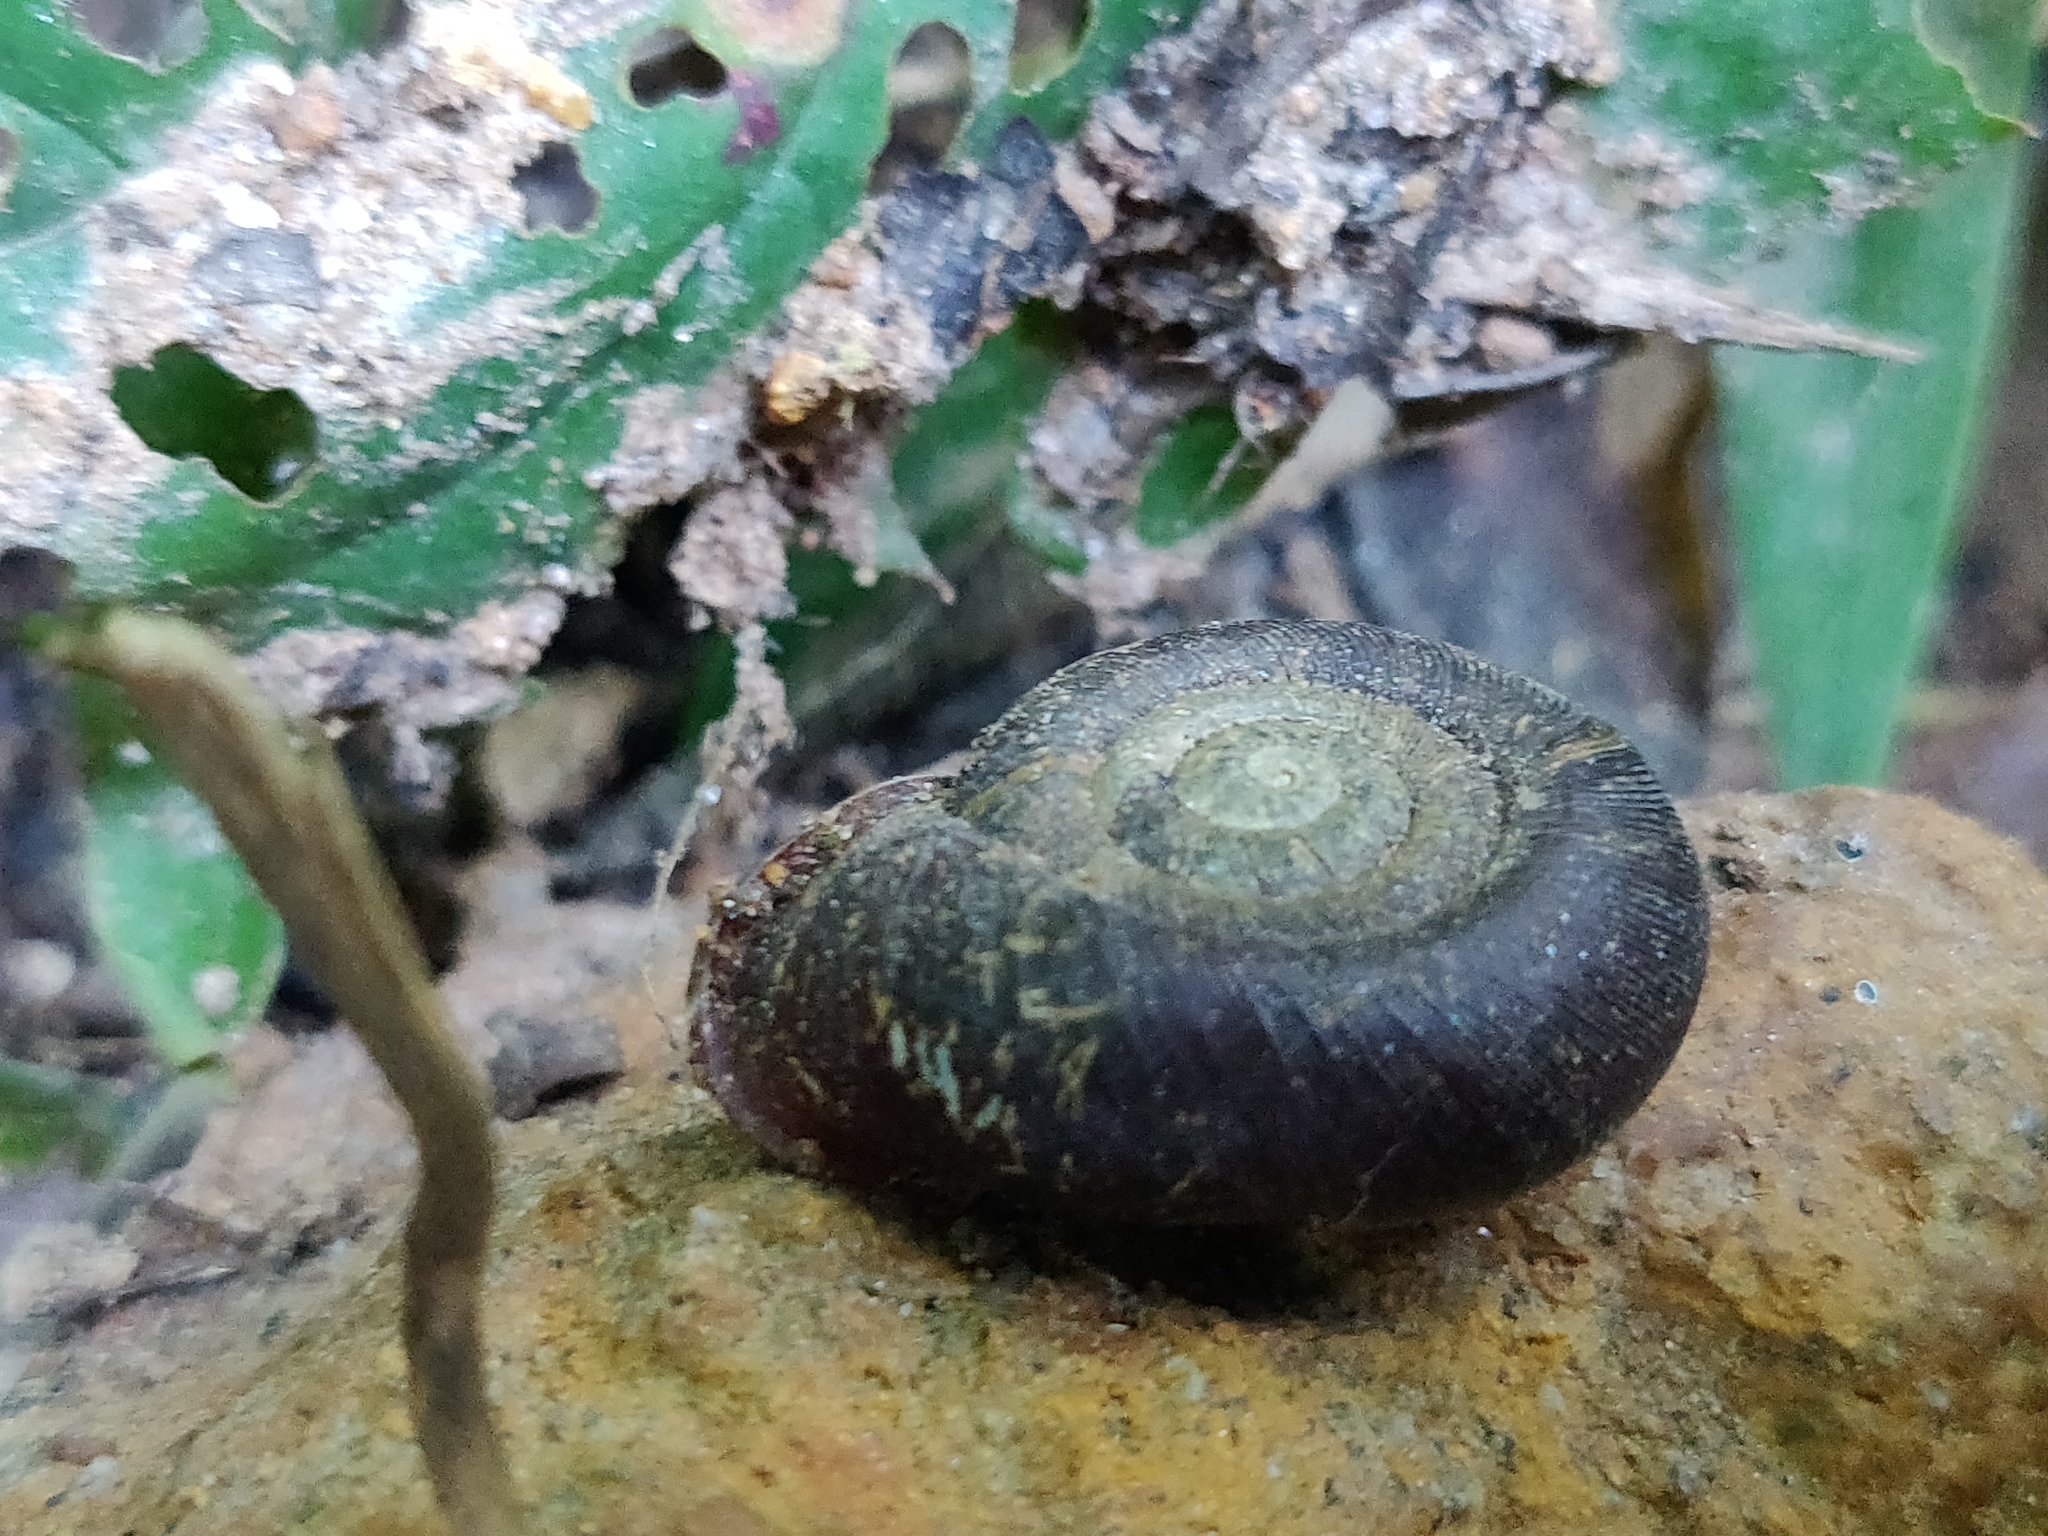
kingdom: Animalia
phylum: Mollusca
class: Gastropoda
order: Stylommatophora
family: Rhytididae
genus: Corilla
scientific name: Corilla anax
